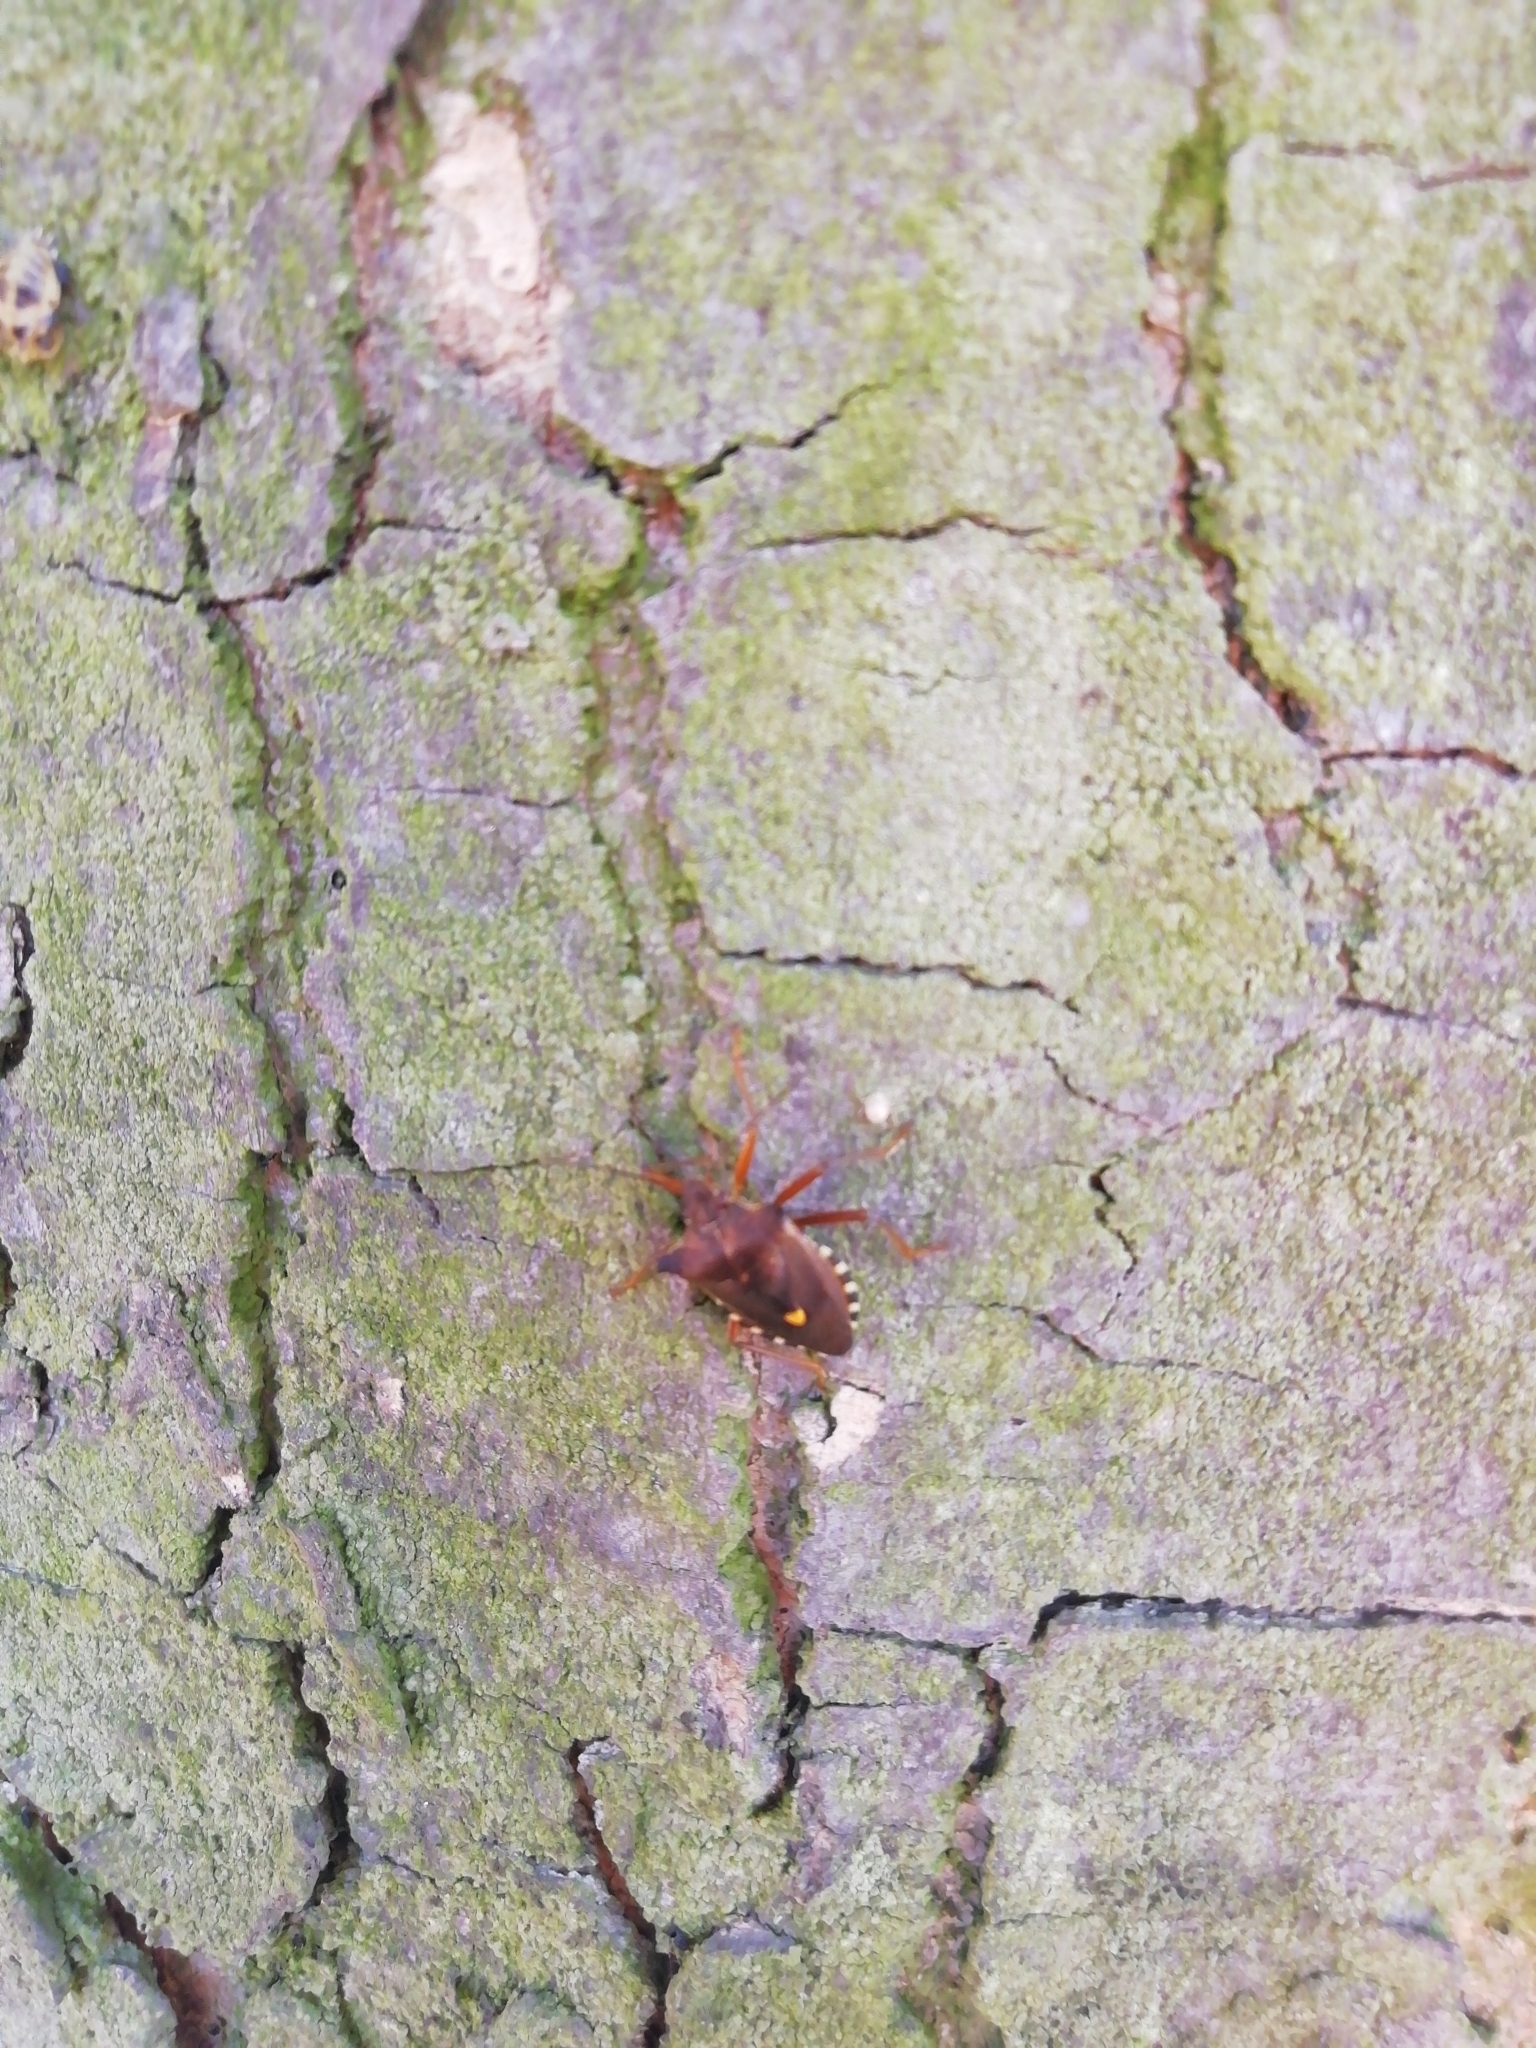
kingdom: Animalia
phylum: Arthropoda
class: Insecta
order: Hemiptera
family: Pentatomidae
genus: Pentatoma
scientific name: Pentatoma rufipes
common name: Forest bug
